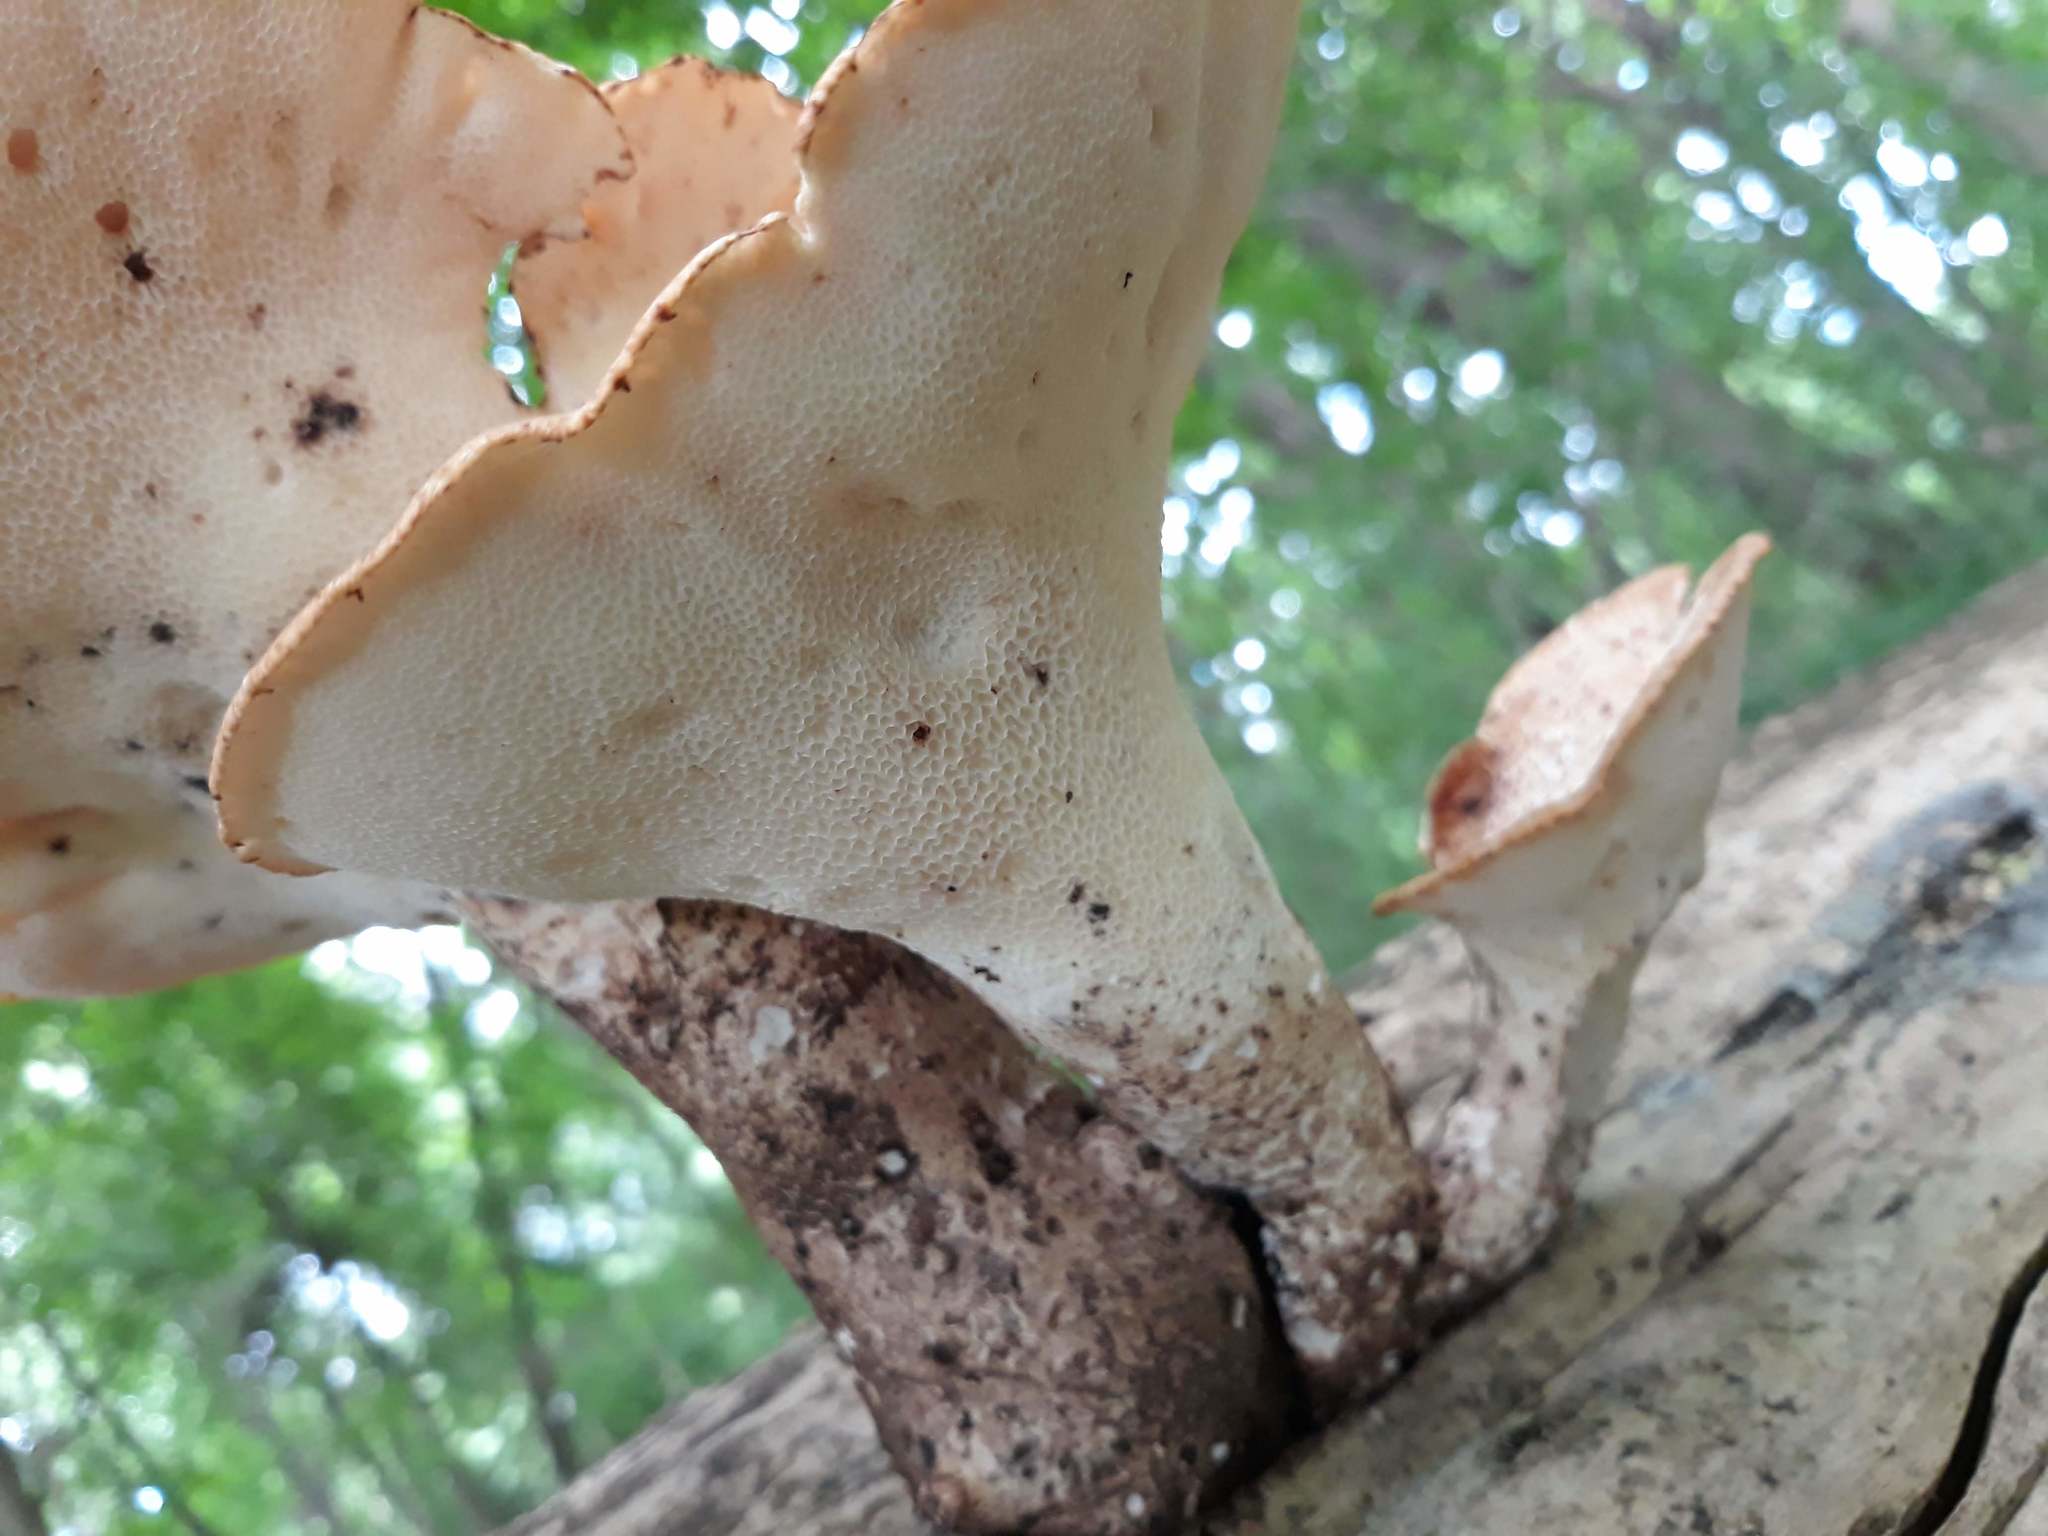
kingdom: Fungi
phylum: Basidiomycota
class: Agaricomycetes
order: Polyporales
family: Polyporaceae
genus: Cerioporus
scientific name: Cerioporus squamosus
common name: Dryad's saddle
